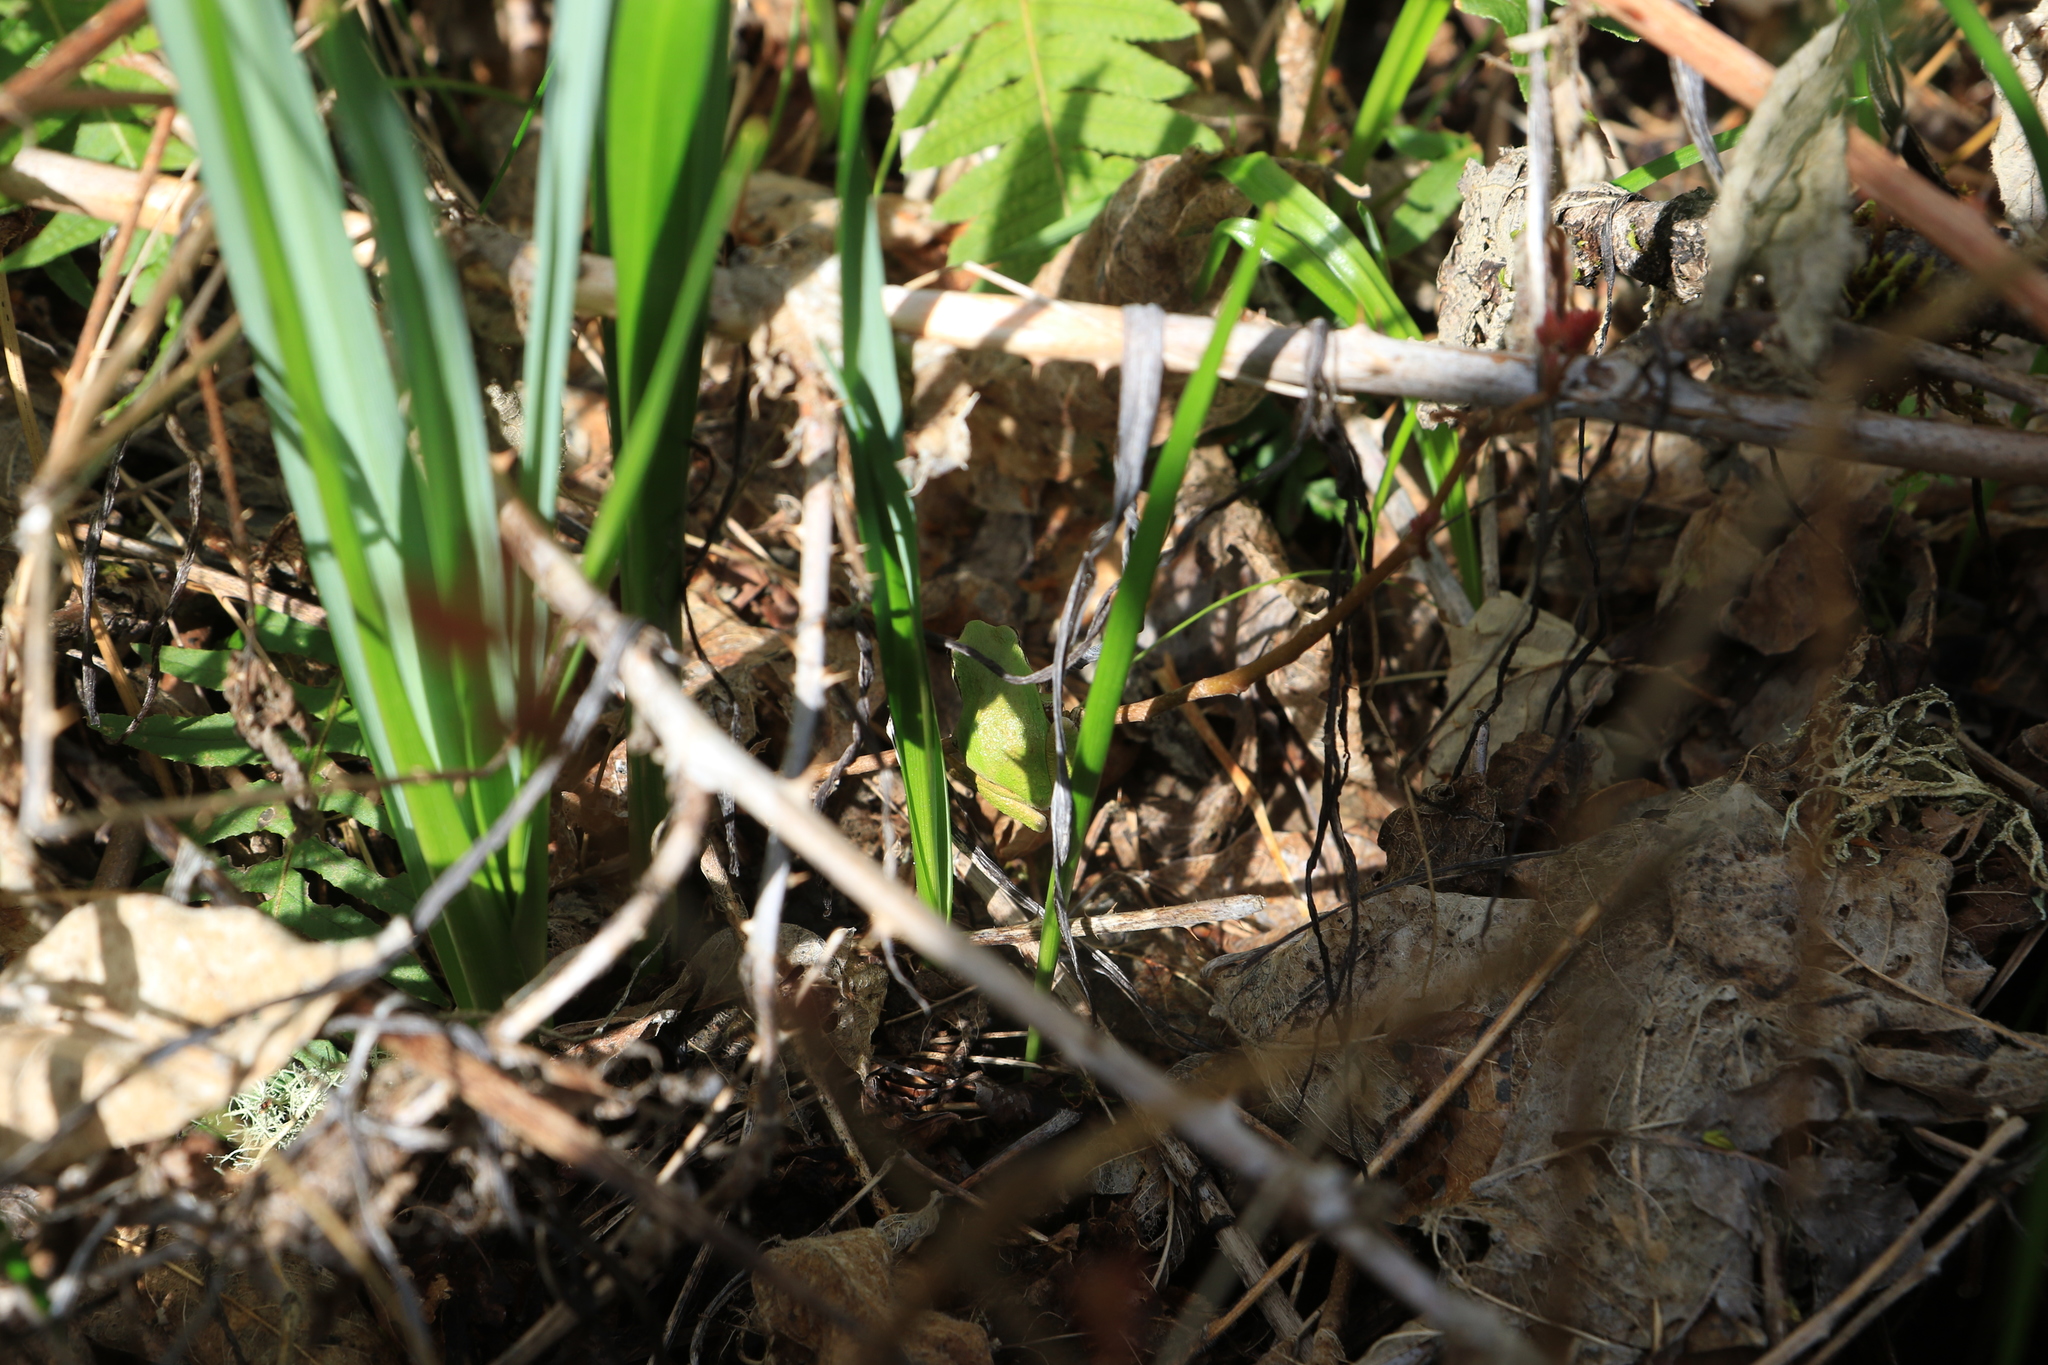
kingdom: Animalia
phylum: Chordata
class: Amphibia
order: Anura
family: Hylidae
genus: Pseudacris
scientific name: Pseudacris regilla
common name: Pacific chorus frog
